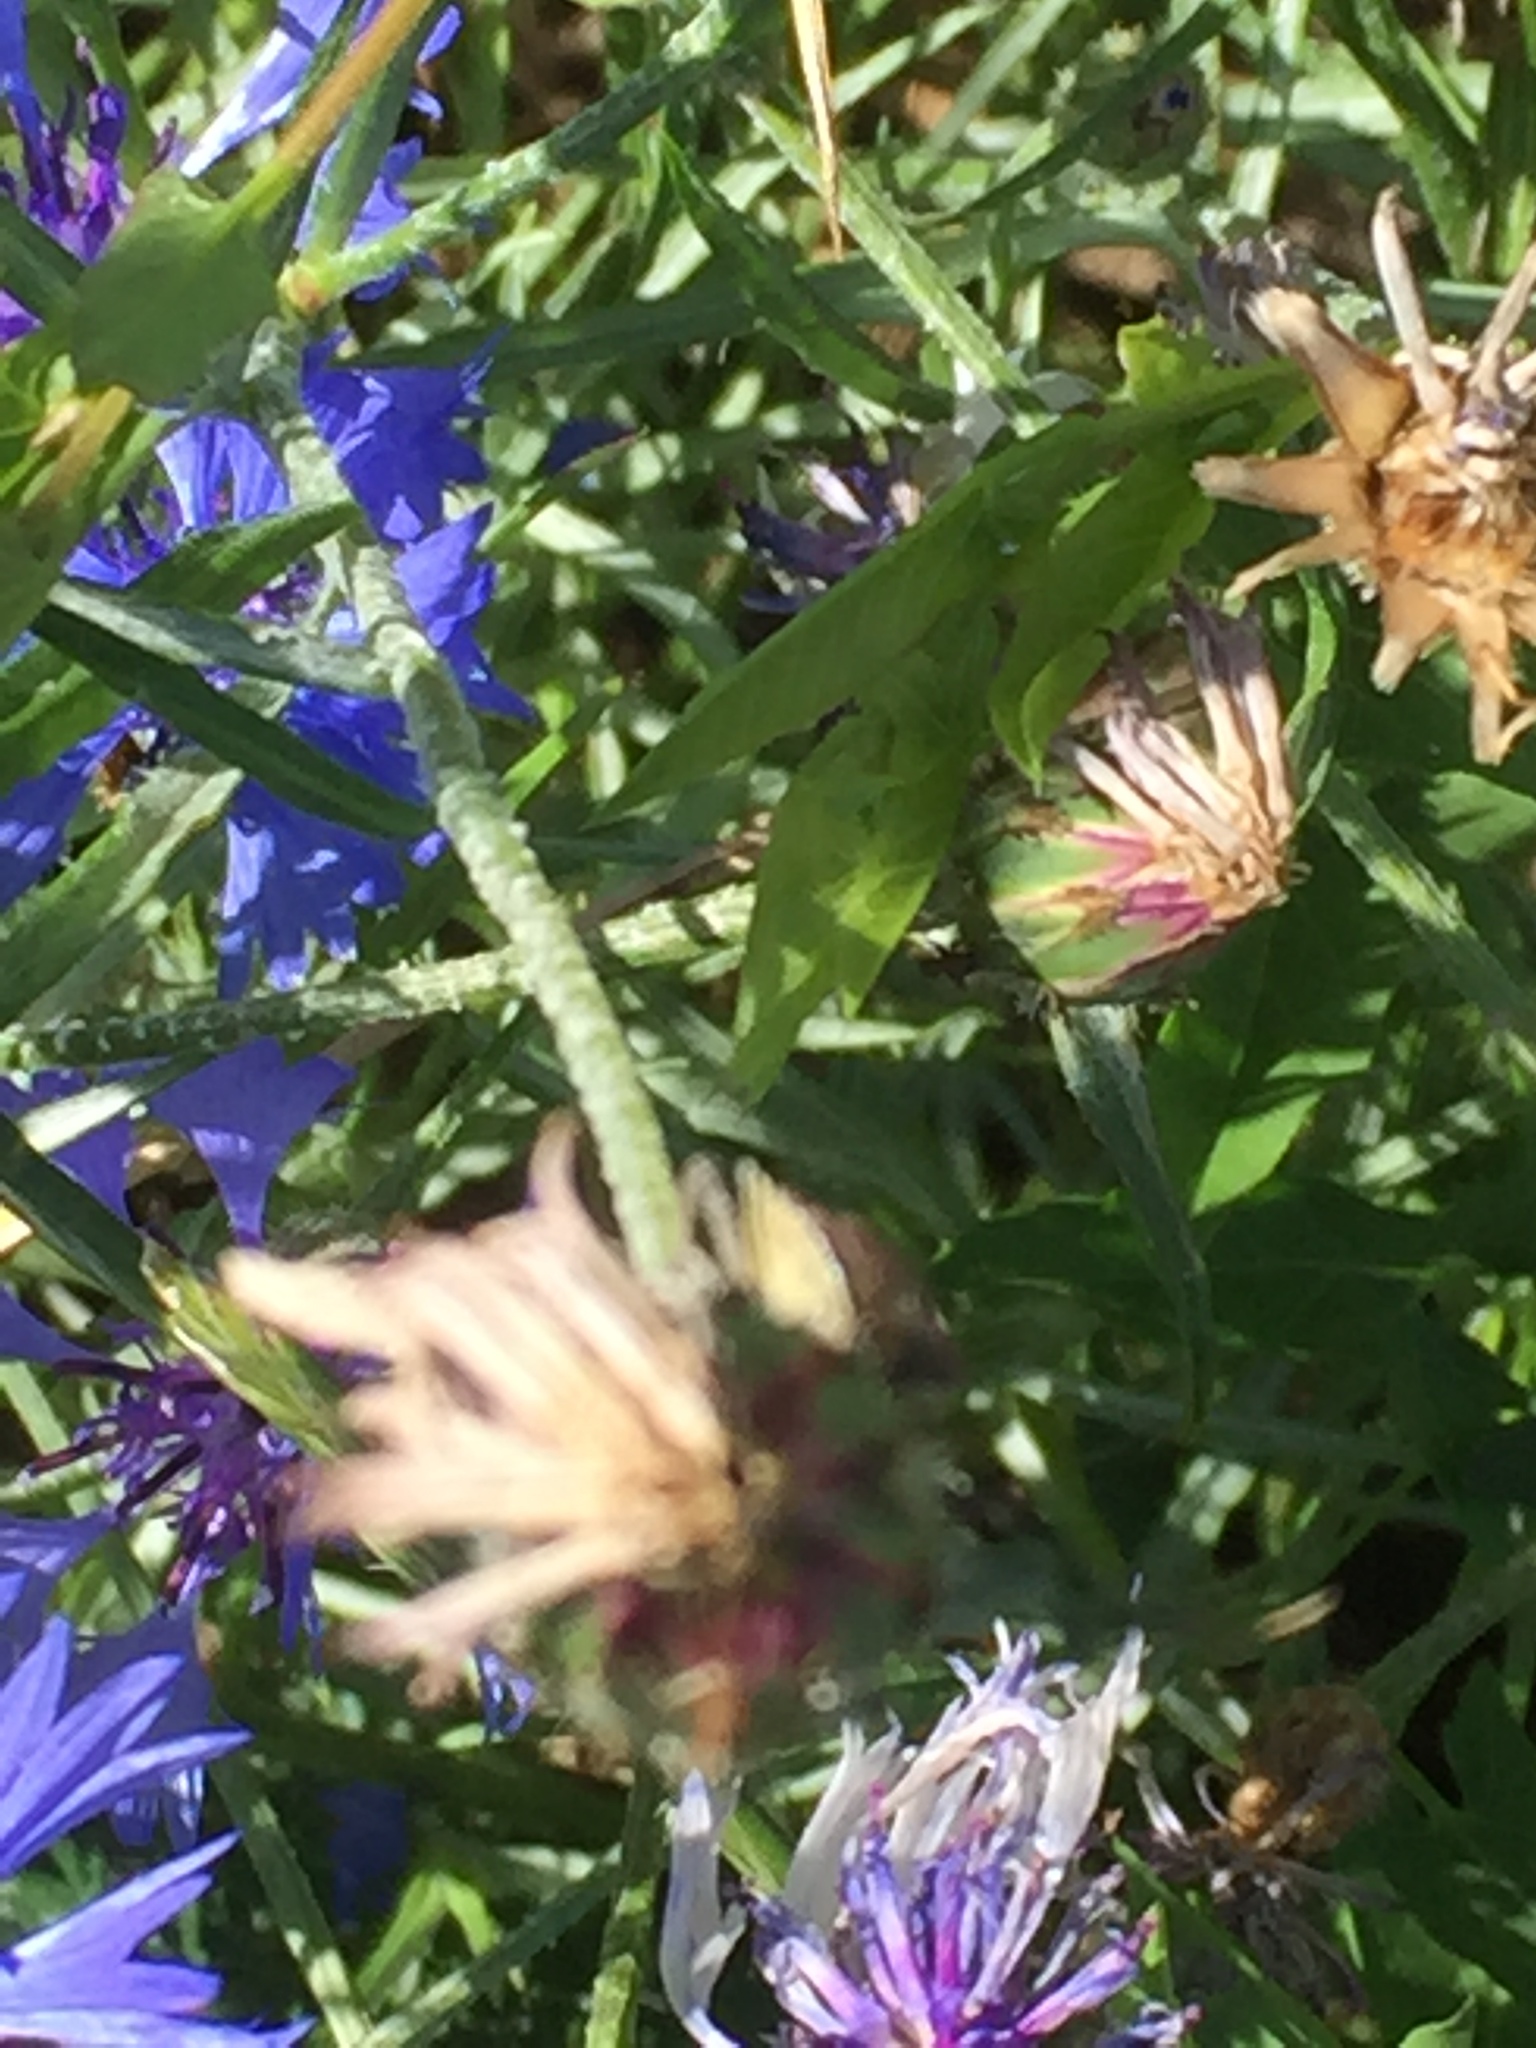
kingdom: Plantae
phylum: Tracheophyta
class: Magnoliopsida
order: Asterales
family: Asteraceae
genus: Centaurea
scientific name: Centaurea cyanus
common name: Cornflower
